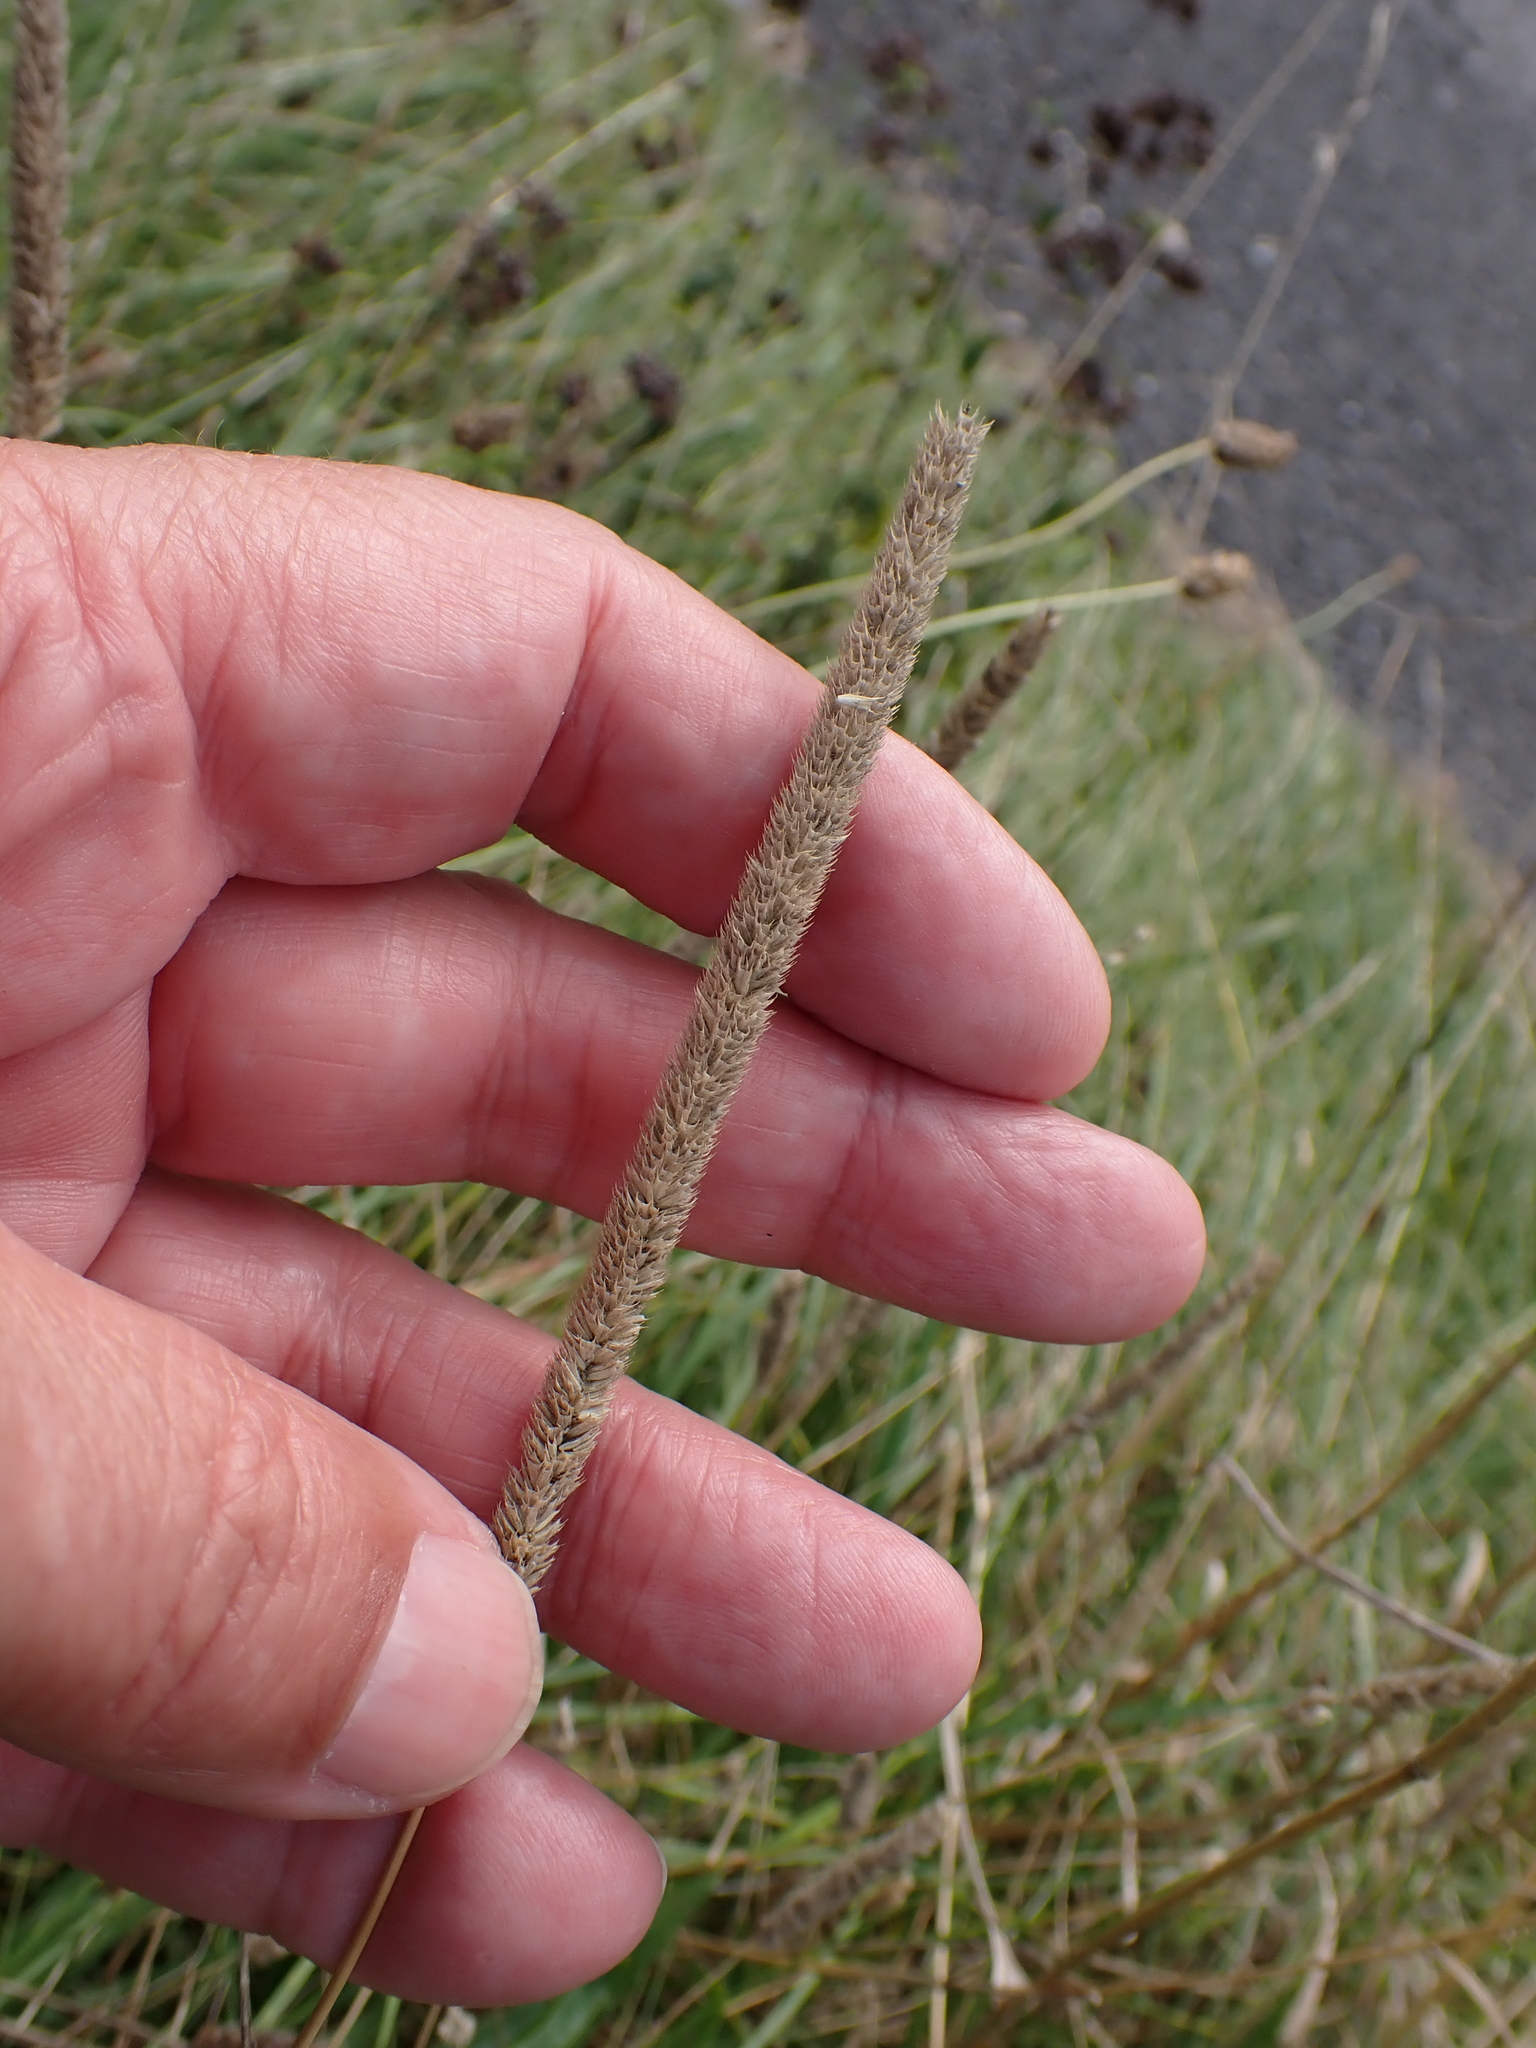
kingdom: Plantae
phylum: Tracheophyta
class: Liliopsida
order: Poales
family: Poaceae
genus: Phleum
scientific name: Phleum pratense
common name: Timothy grass
